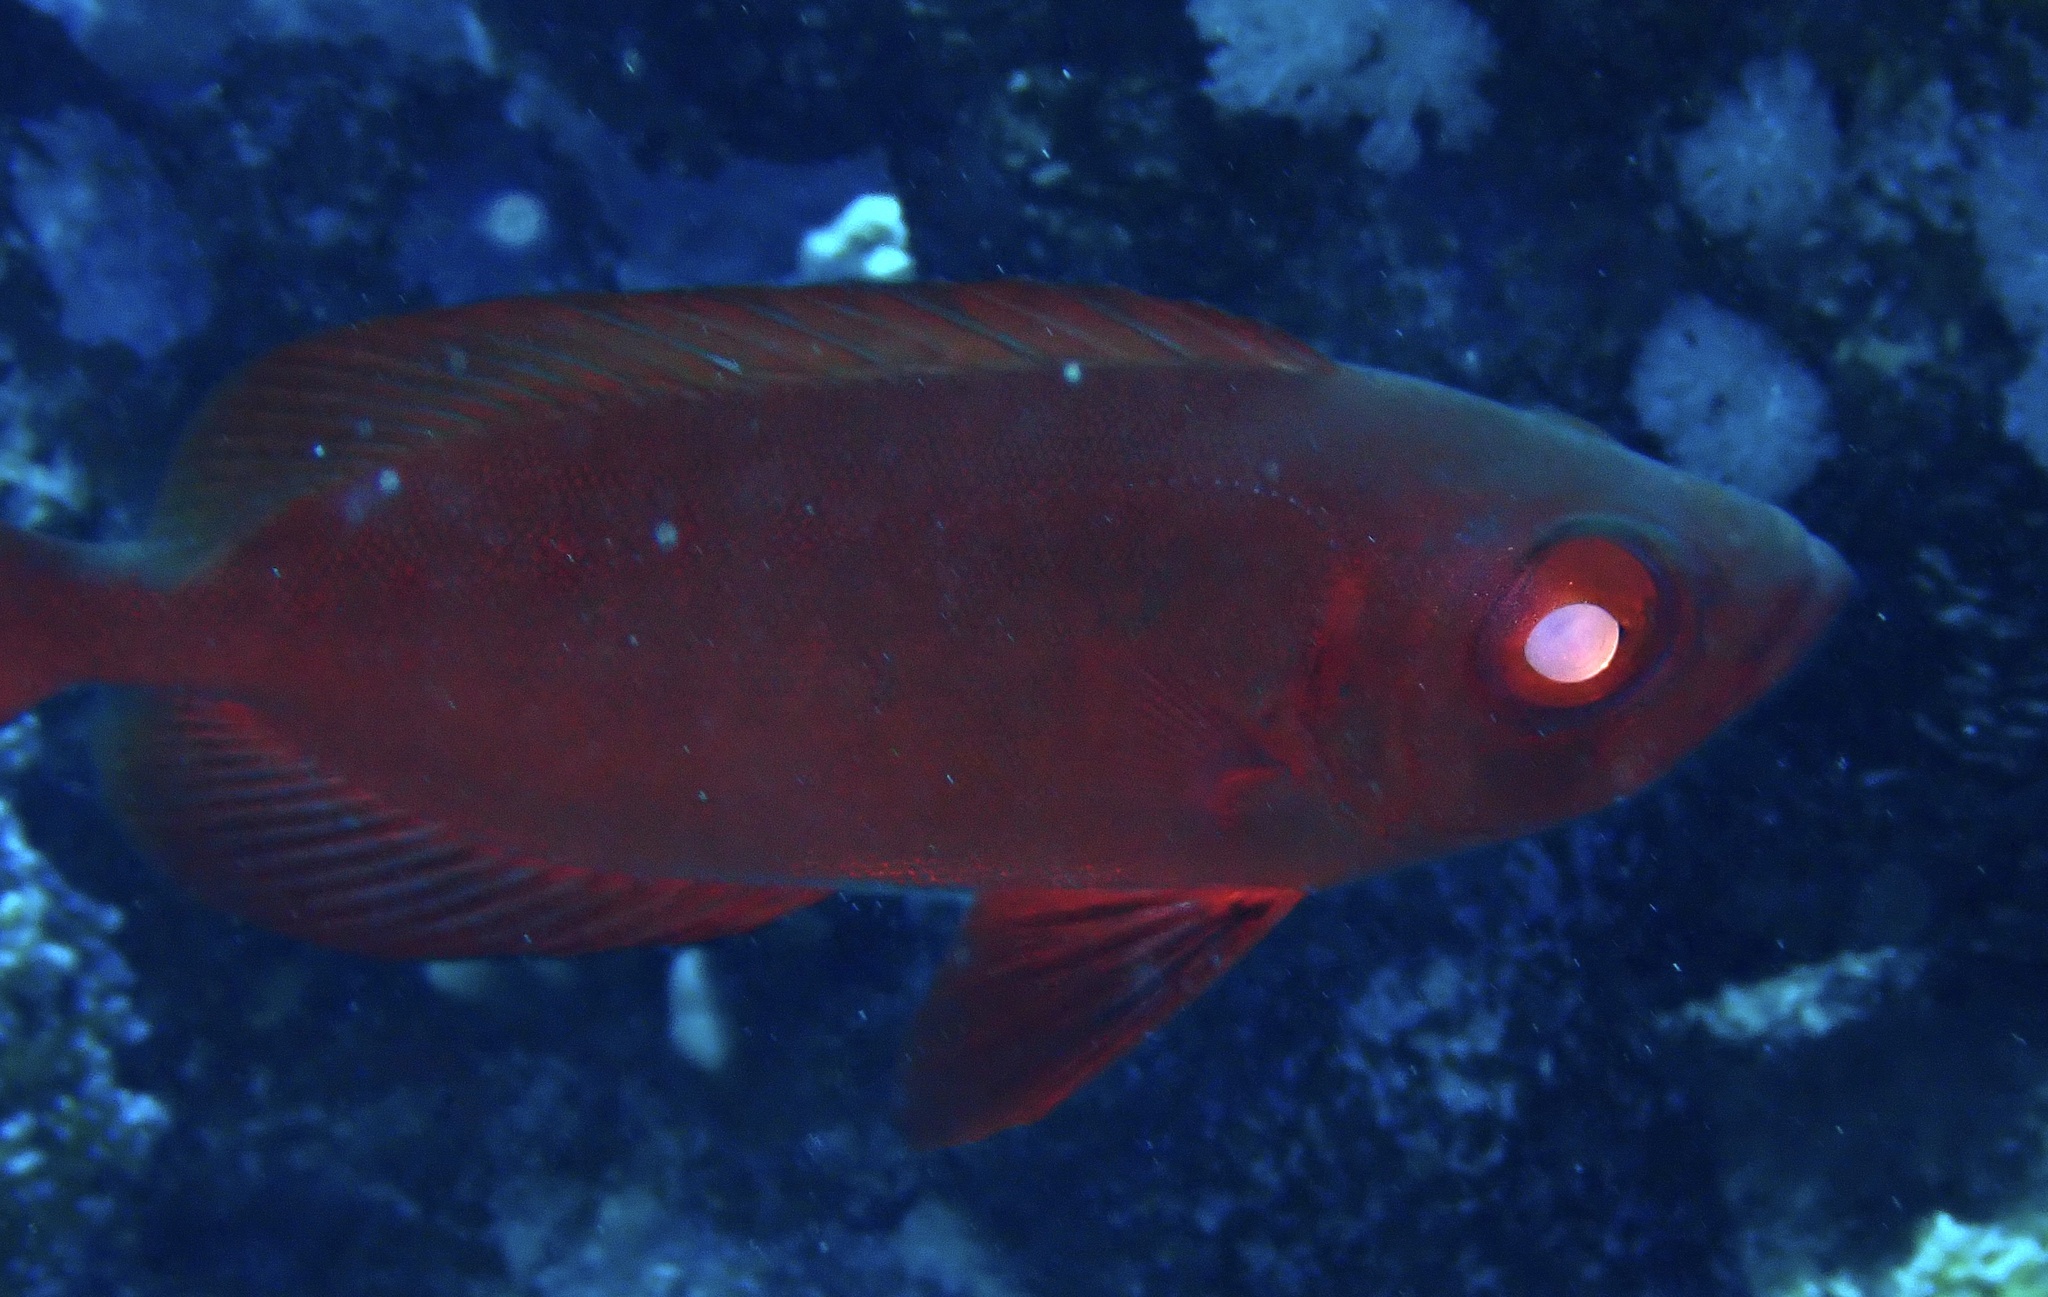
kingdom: Animalia
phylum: Chordata
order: Perciformes
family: Priacanthidae
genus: Priacanthus
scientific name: Priacanthus hamrur
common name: Moontail bullseye
